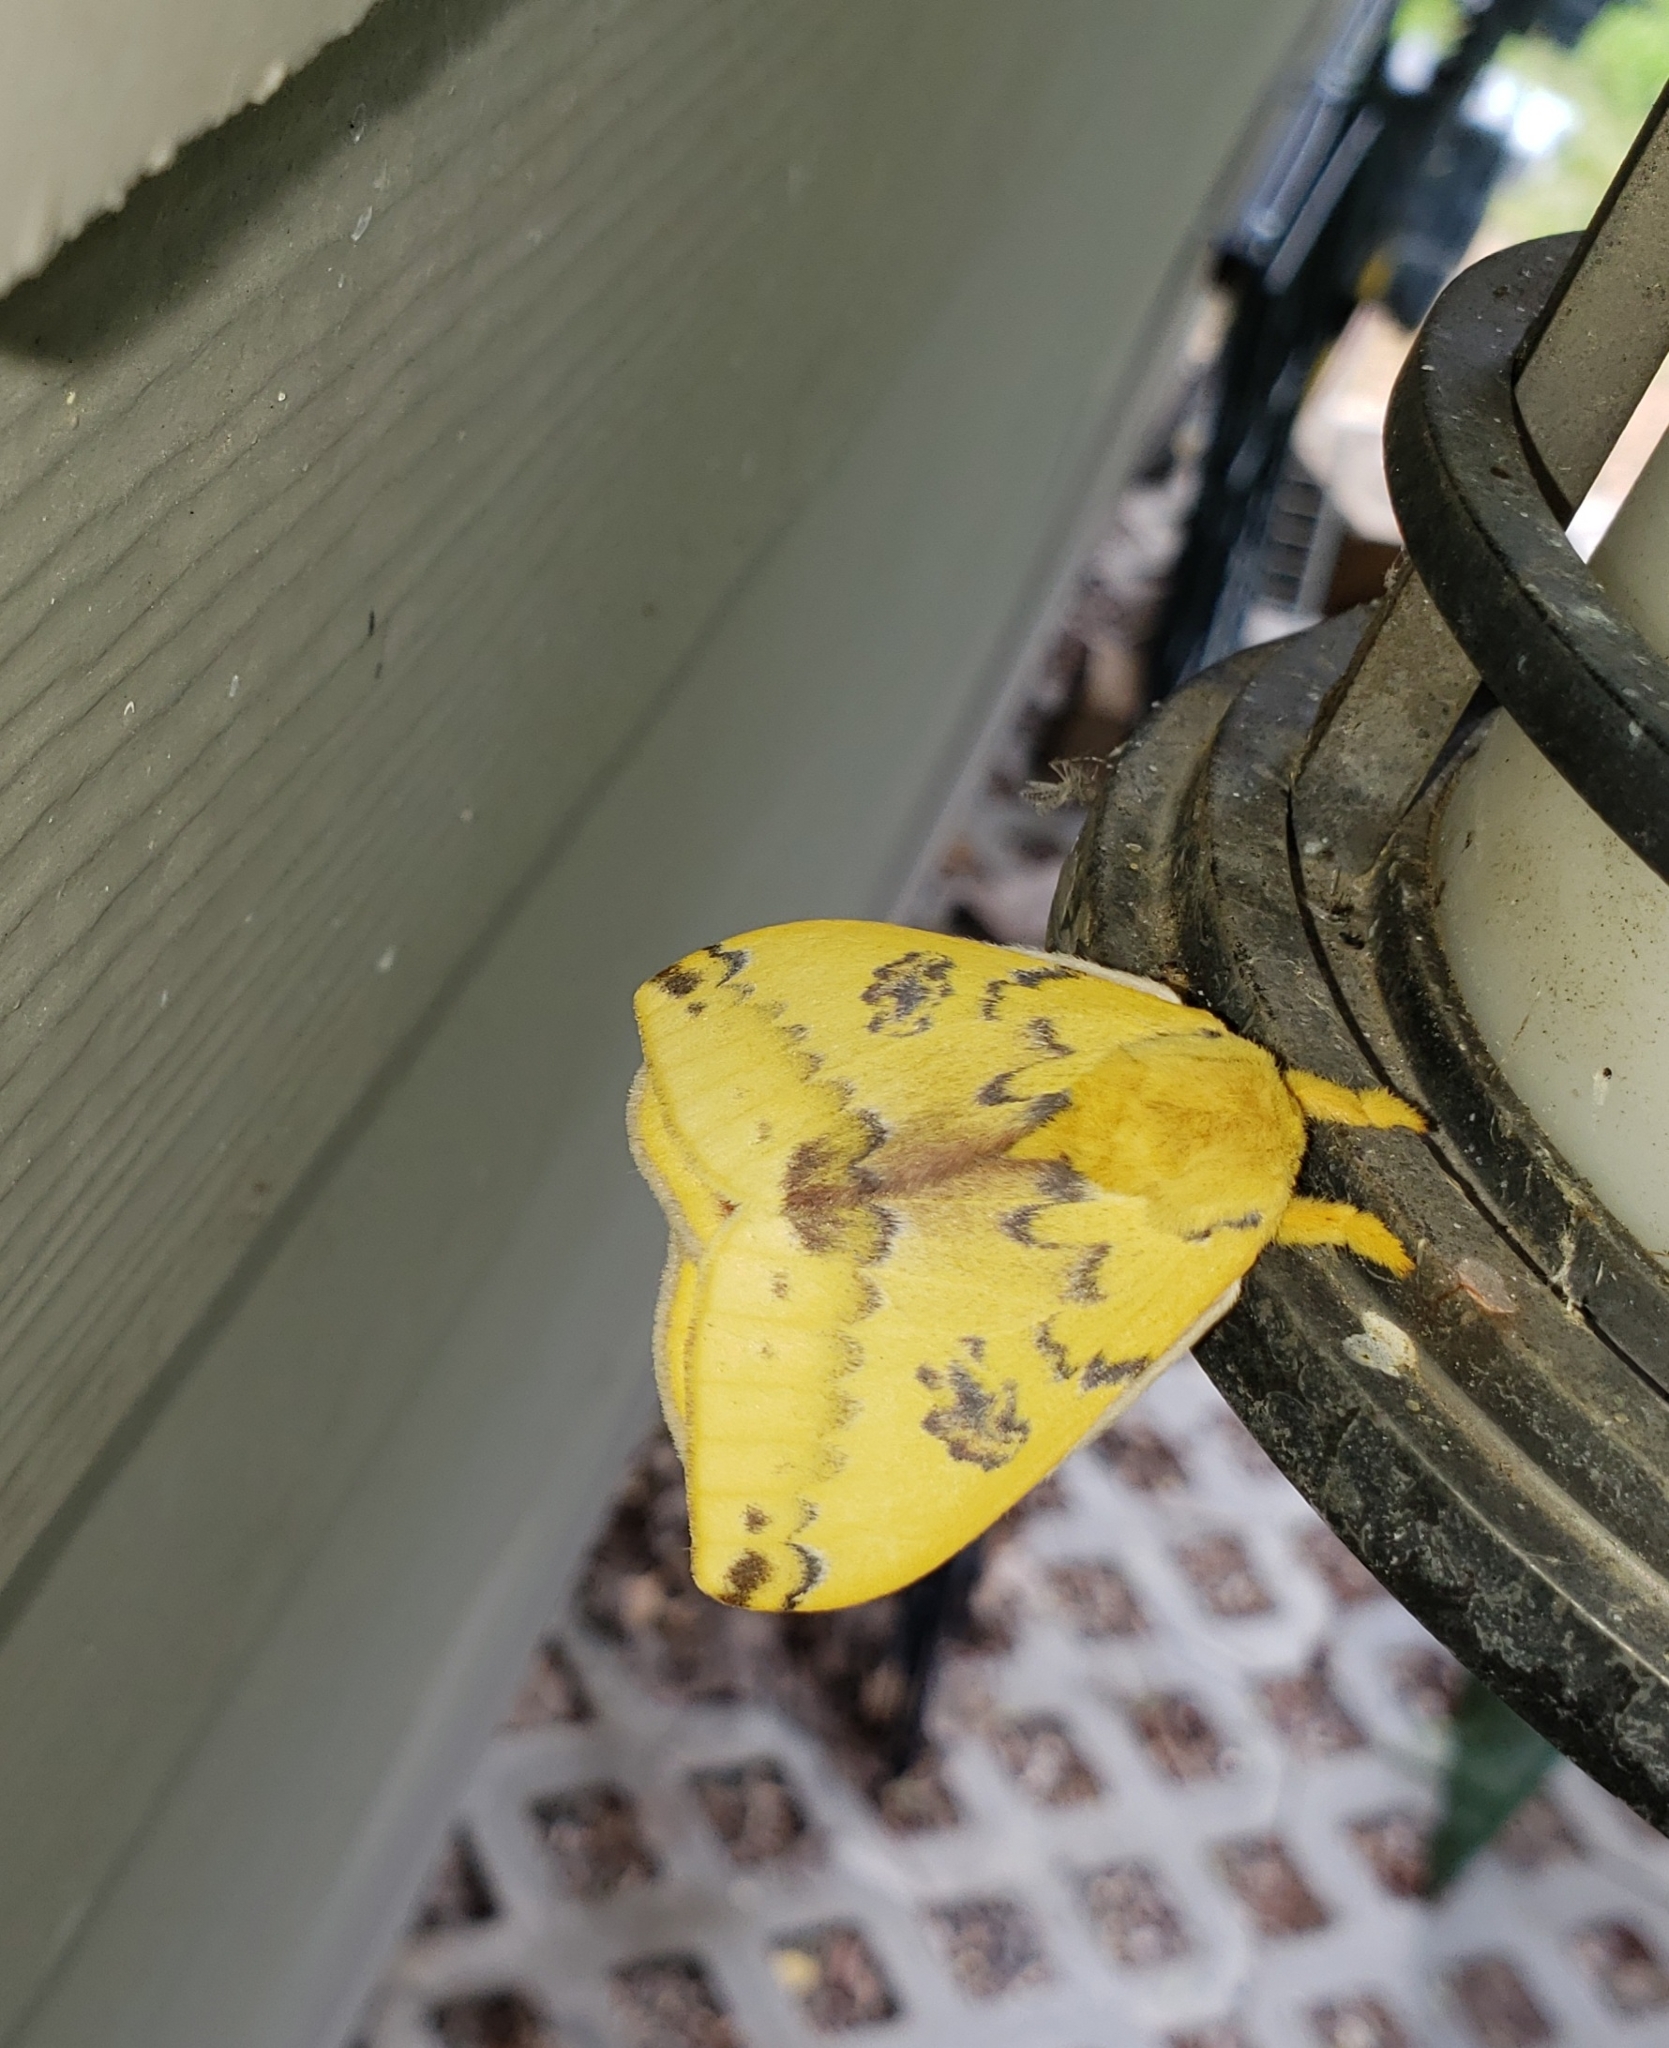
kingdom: Animalia
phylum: Arthropoda
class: Insecta
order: Lepidoptera
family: Saturniidae
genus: Automeris
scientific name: Automeris io
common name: Io moth
